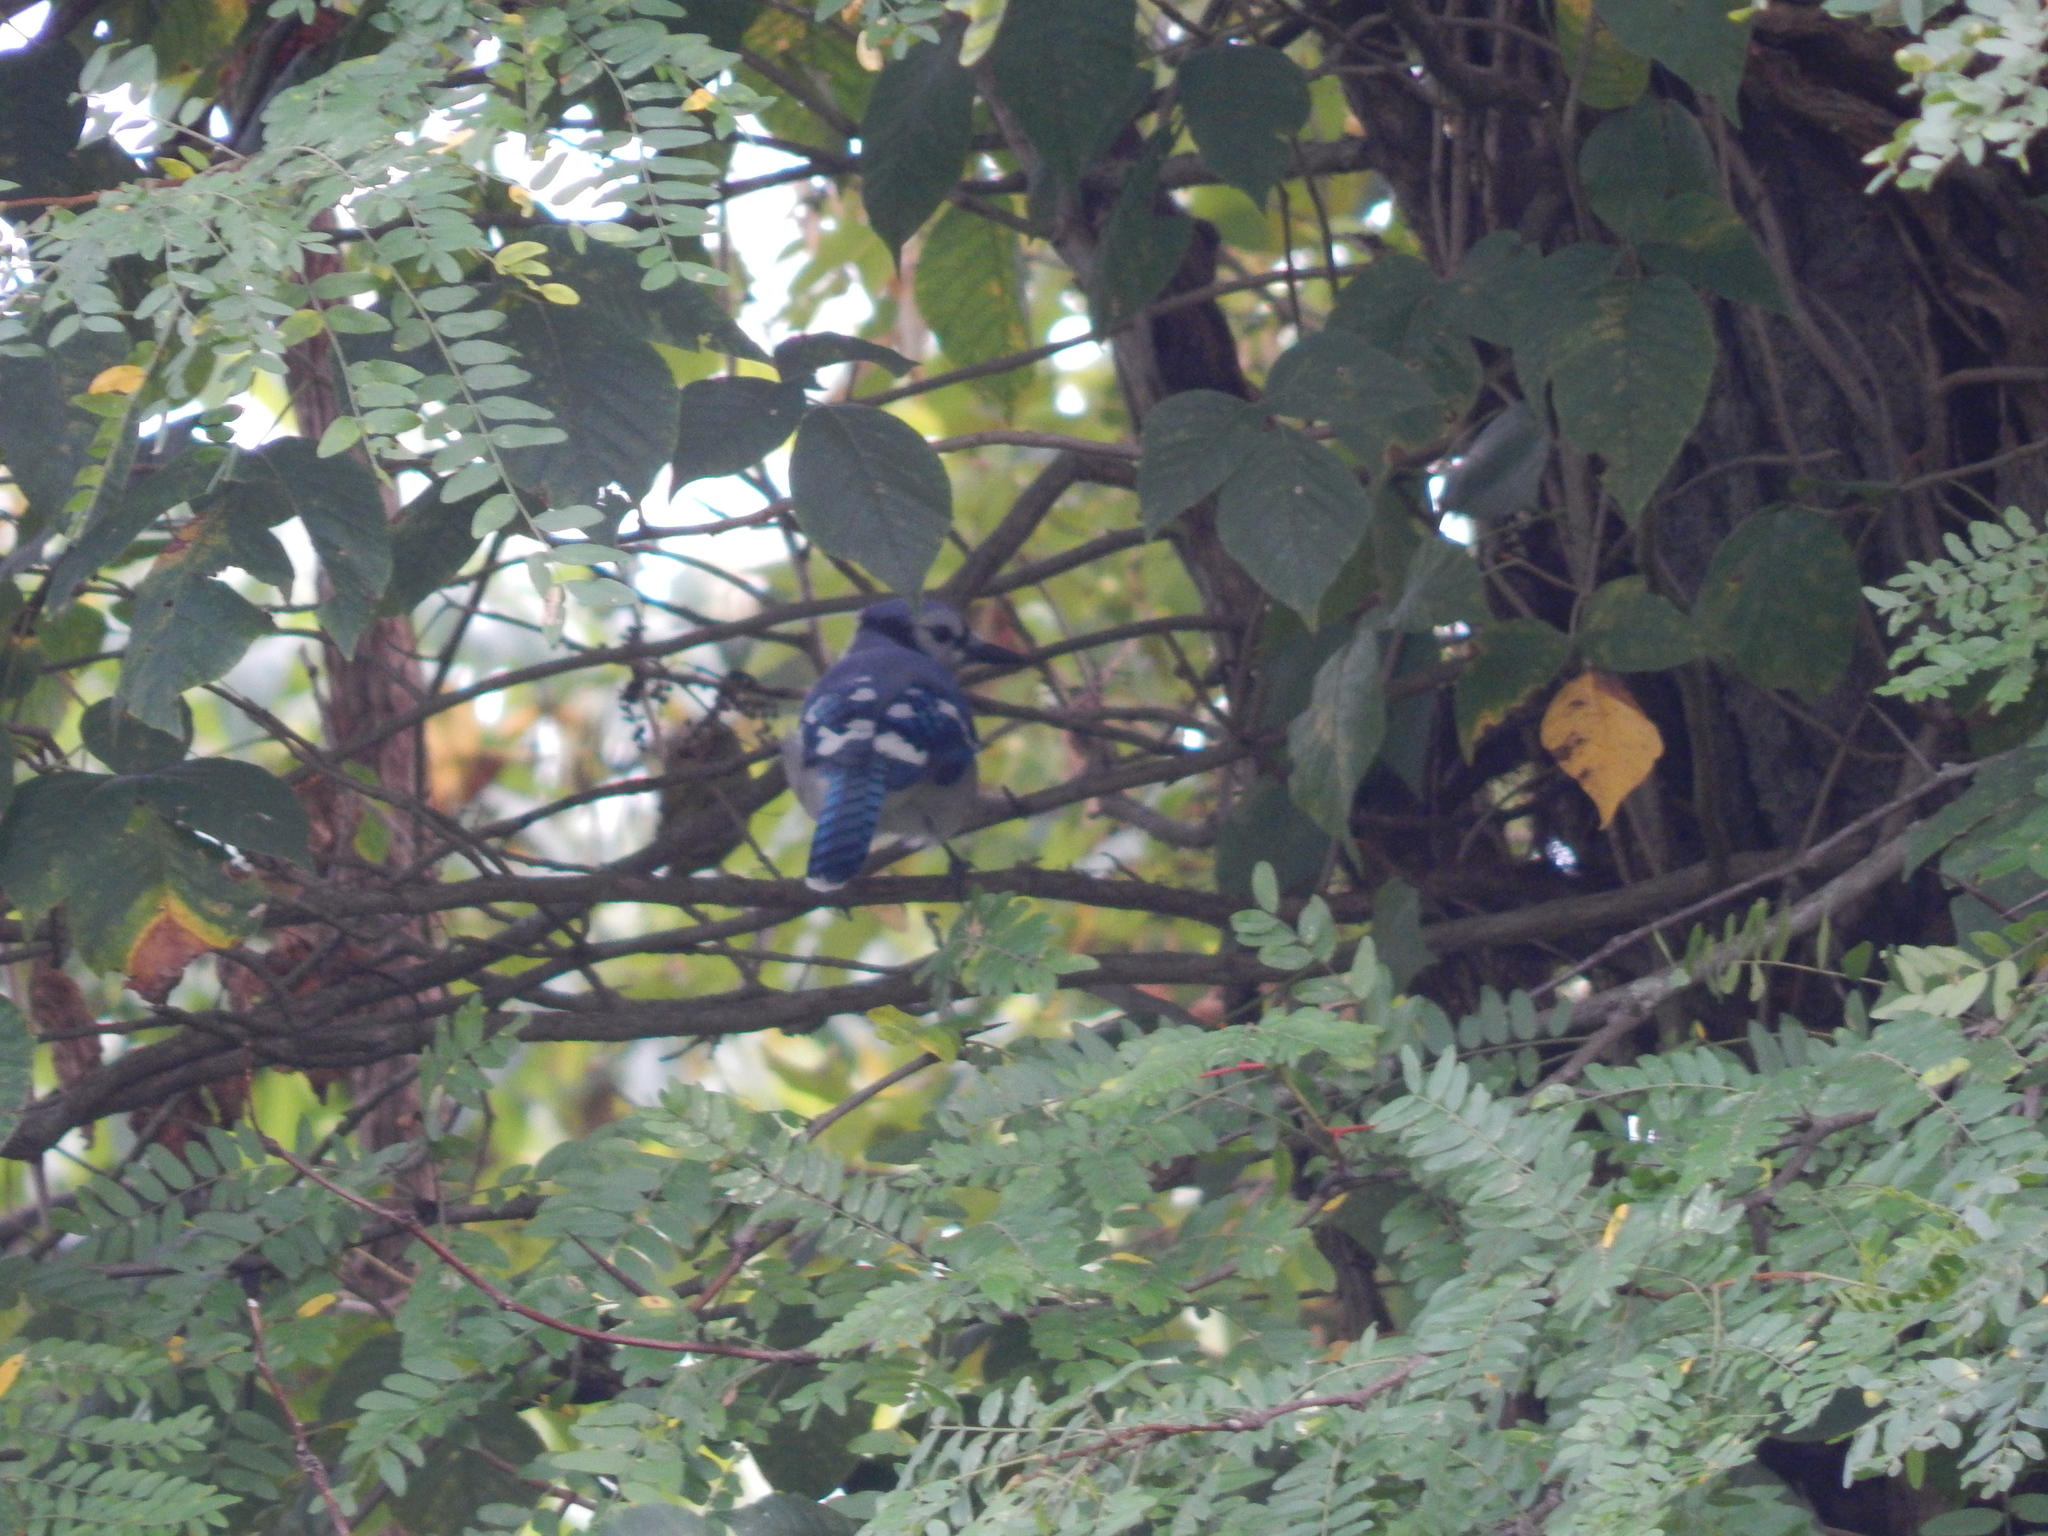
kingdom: Animalia
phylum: Chordata
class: Aves
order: Passeriformes
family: Corvidae
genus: Cyanocitta
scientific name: Cyanocitta cristata
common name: Blue jay
